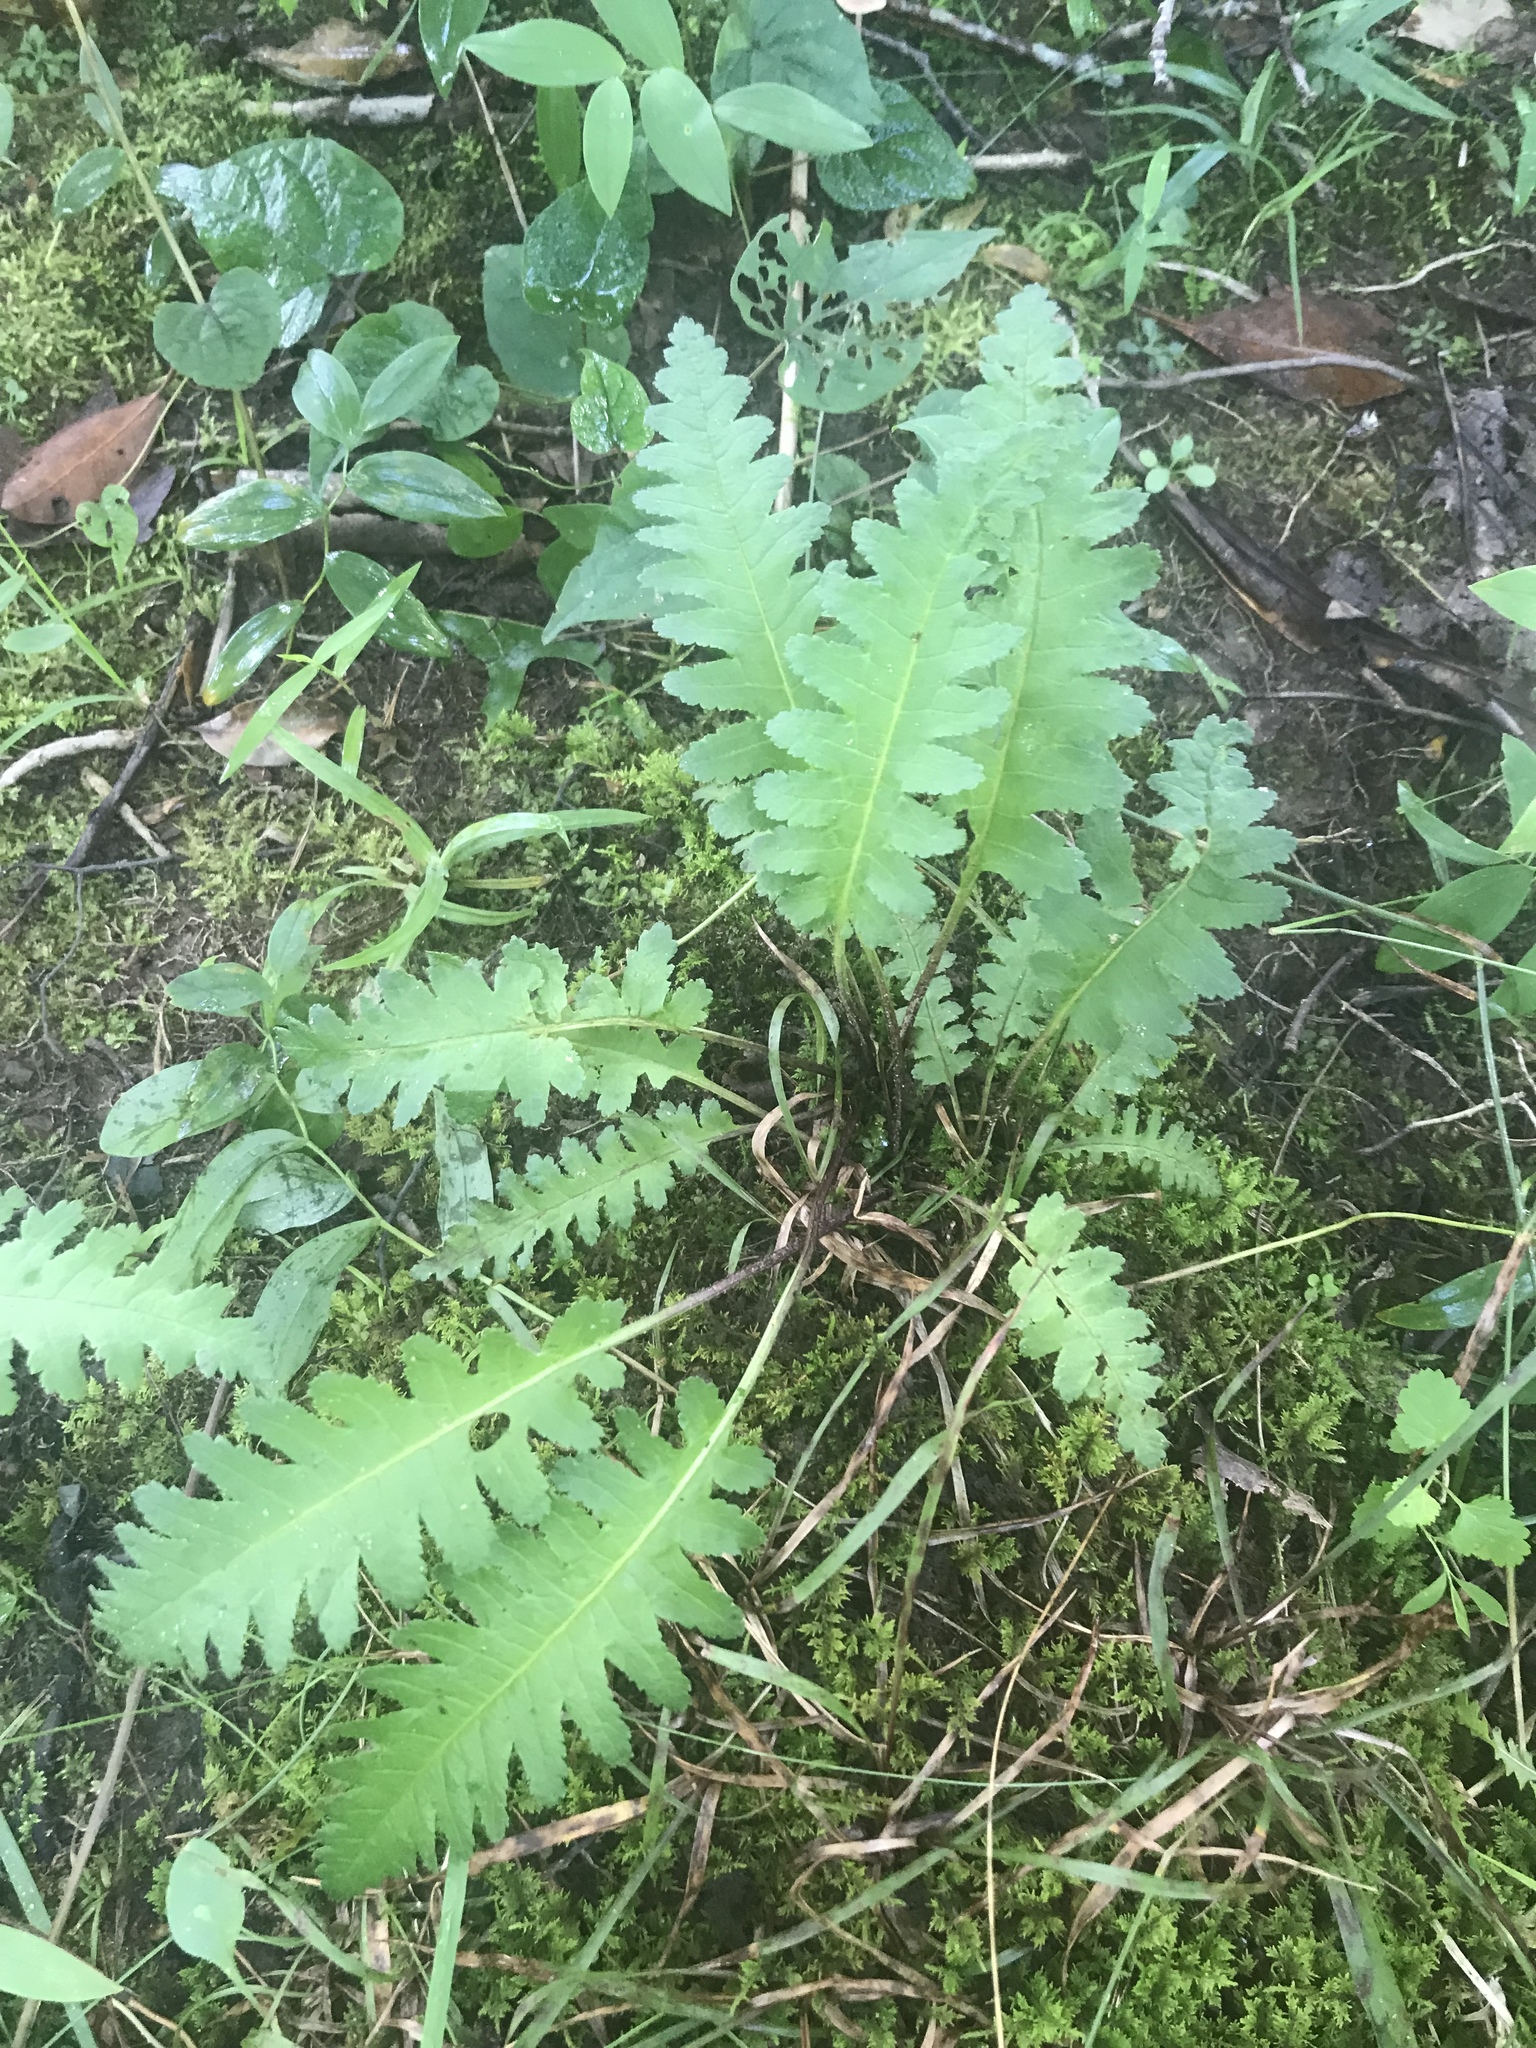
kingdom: Plantae
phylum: Tracheophyta
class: Magnoliopsida
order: Lamiales
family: Orobanchaceae
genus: Pedicularis
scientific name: Pedicularis canadensis
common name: Early lousewort
